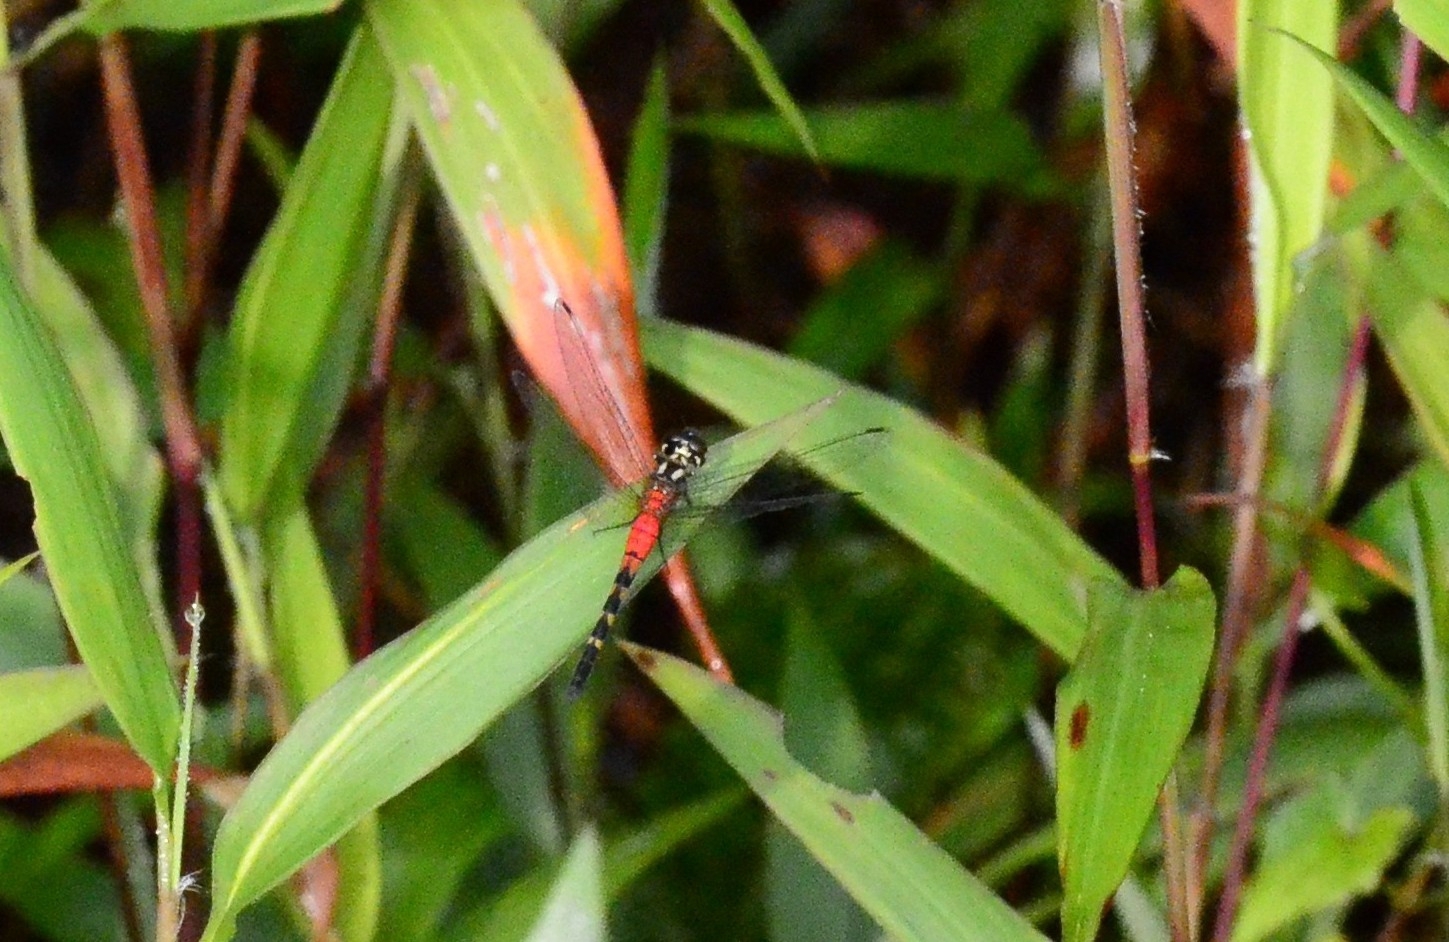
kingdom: Animalia
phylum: Arthropoda
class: Insecta
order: Odonata
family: Libellulidae
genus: Epithemis
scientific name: Epithemis mariae
